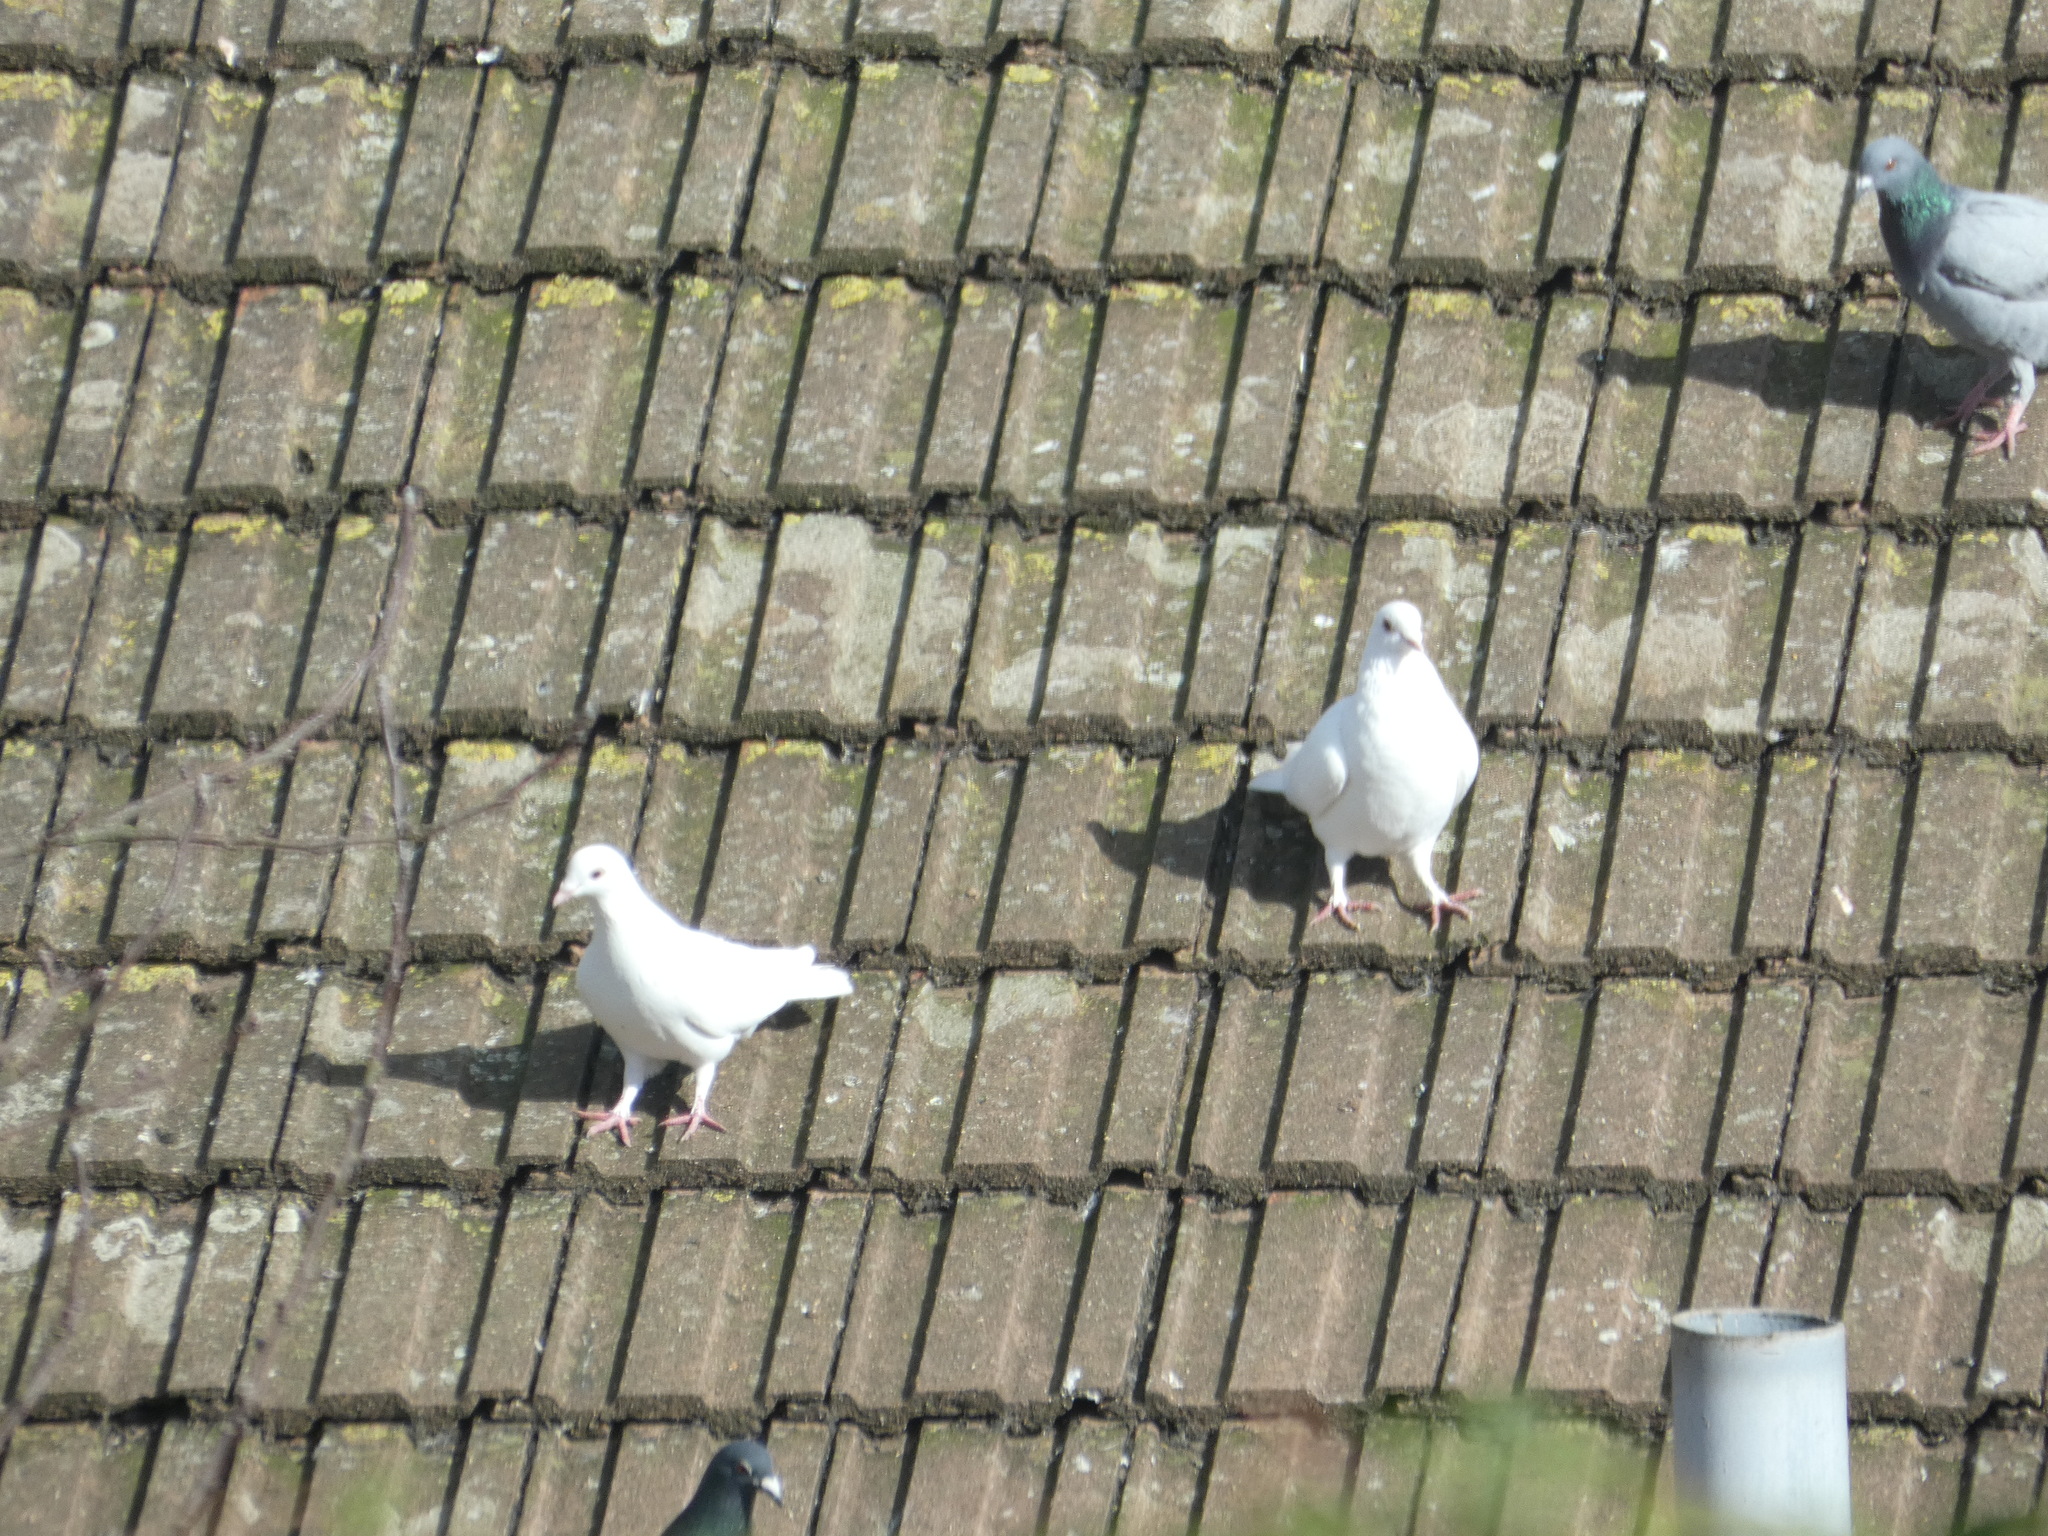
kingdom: Animalia
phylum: Chordata
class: Aves
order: Columbiformes
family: Columbidae
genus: Columba
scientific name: Columba livia
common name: Rock pigeon
